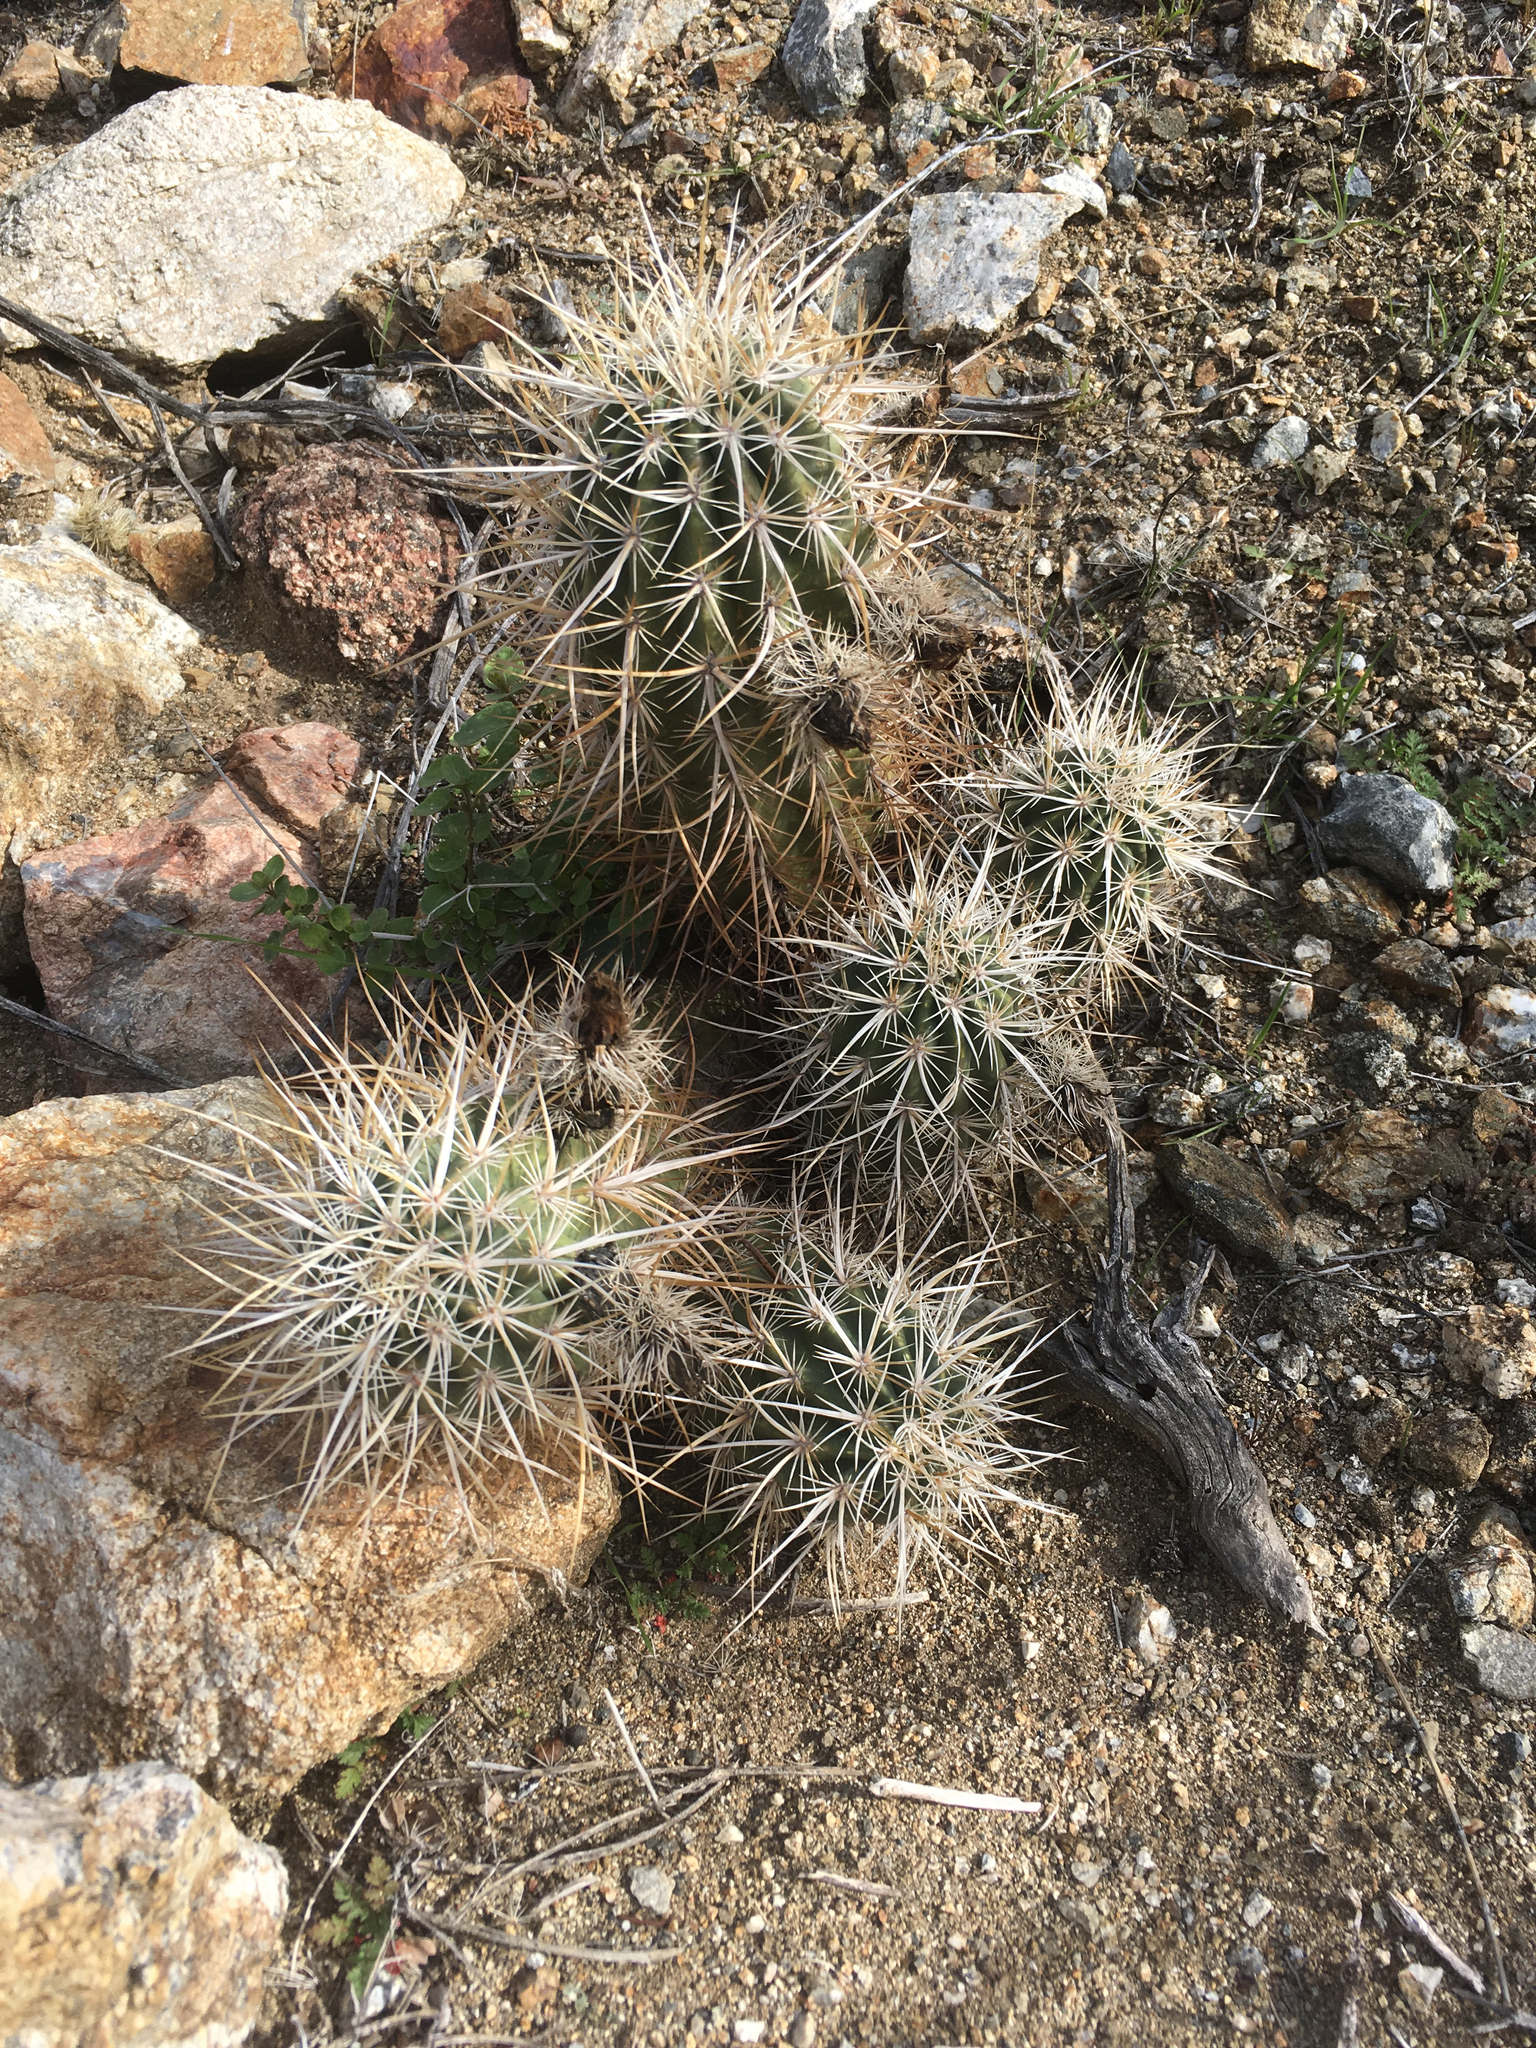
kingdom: Plantae
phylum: Tracheophyta
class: Magnoliopsida
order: Caryophyllales
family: Cactaceae
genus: Echinocereus
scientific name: Echinocereus engelmannii
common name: Engelmann's hedgehog cactus
